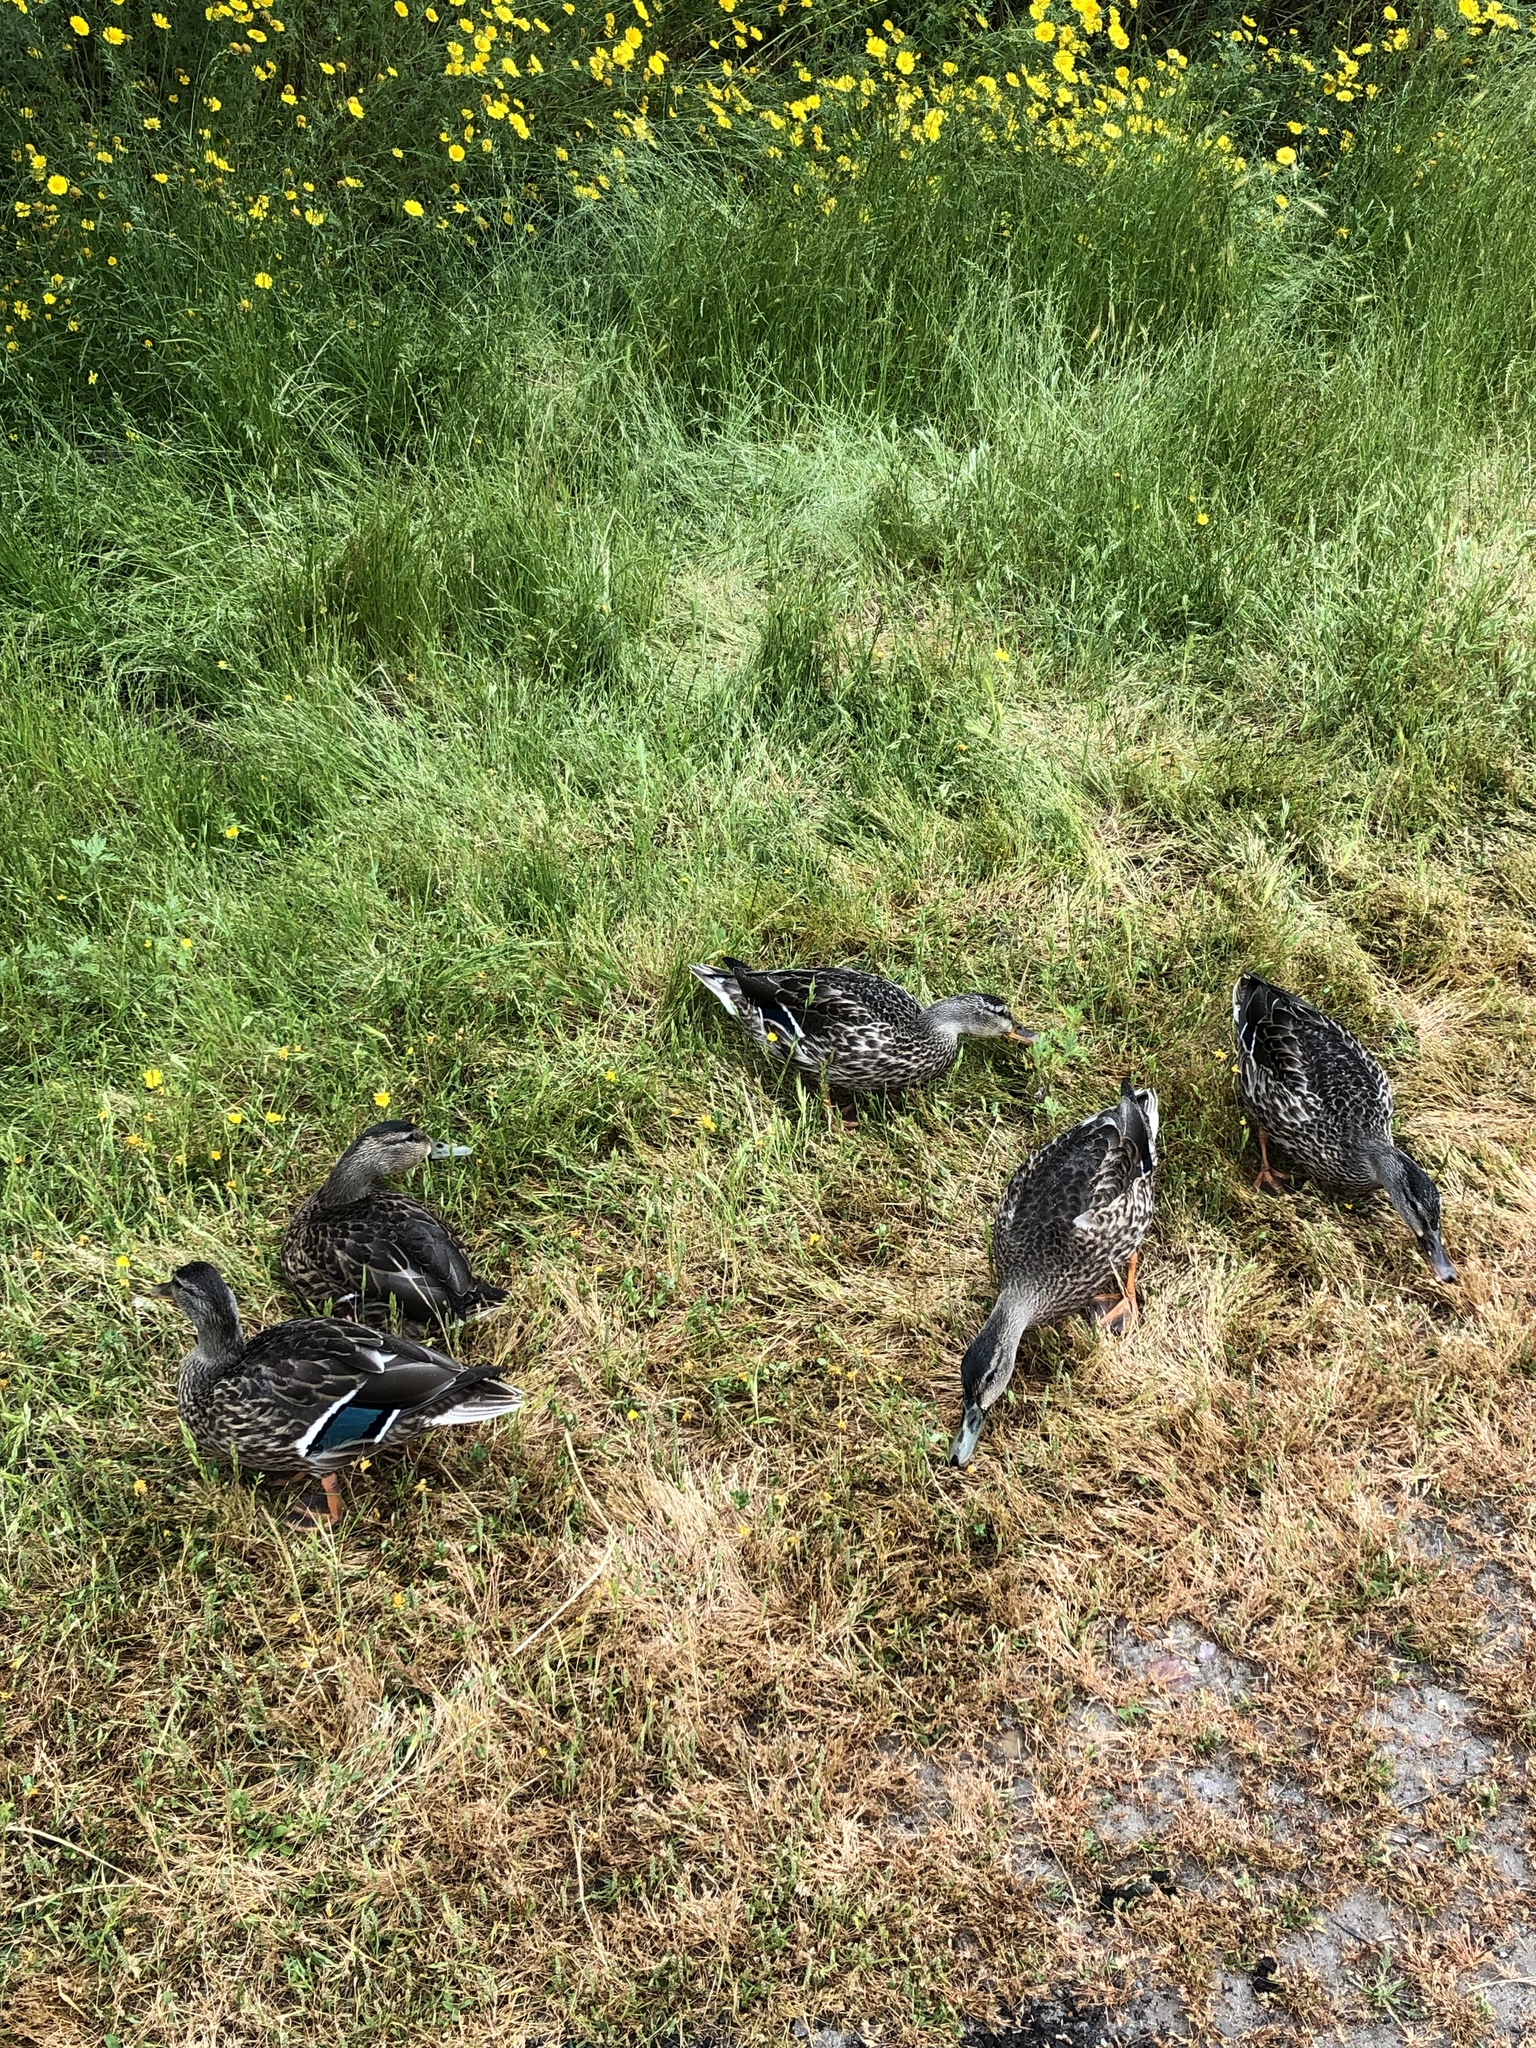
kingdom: Animalia
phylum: Chordata
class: Aves
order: Anseriformes
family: Anatidae
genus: Anas
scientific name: Anas platyrhynchos
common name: Mallard
